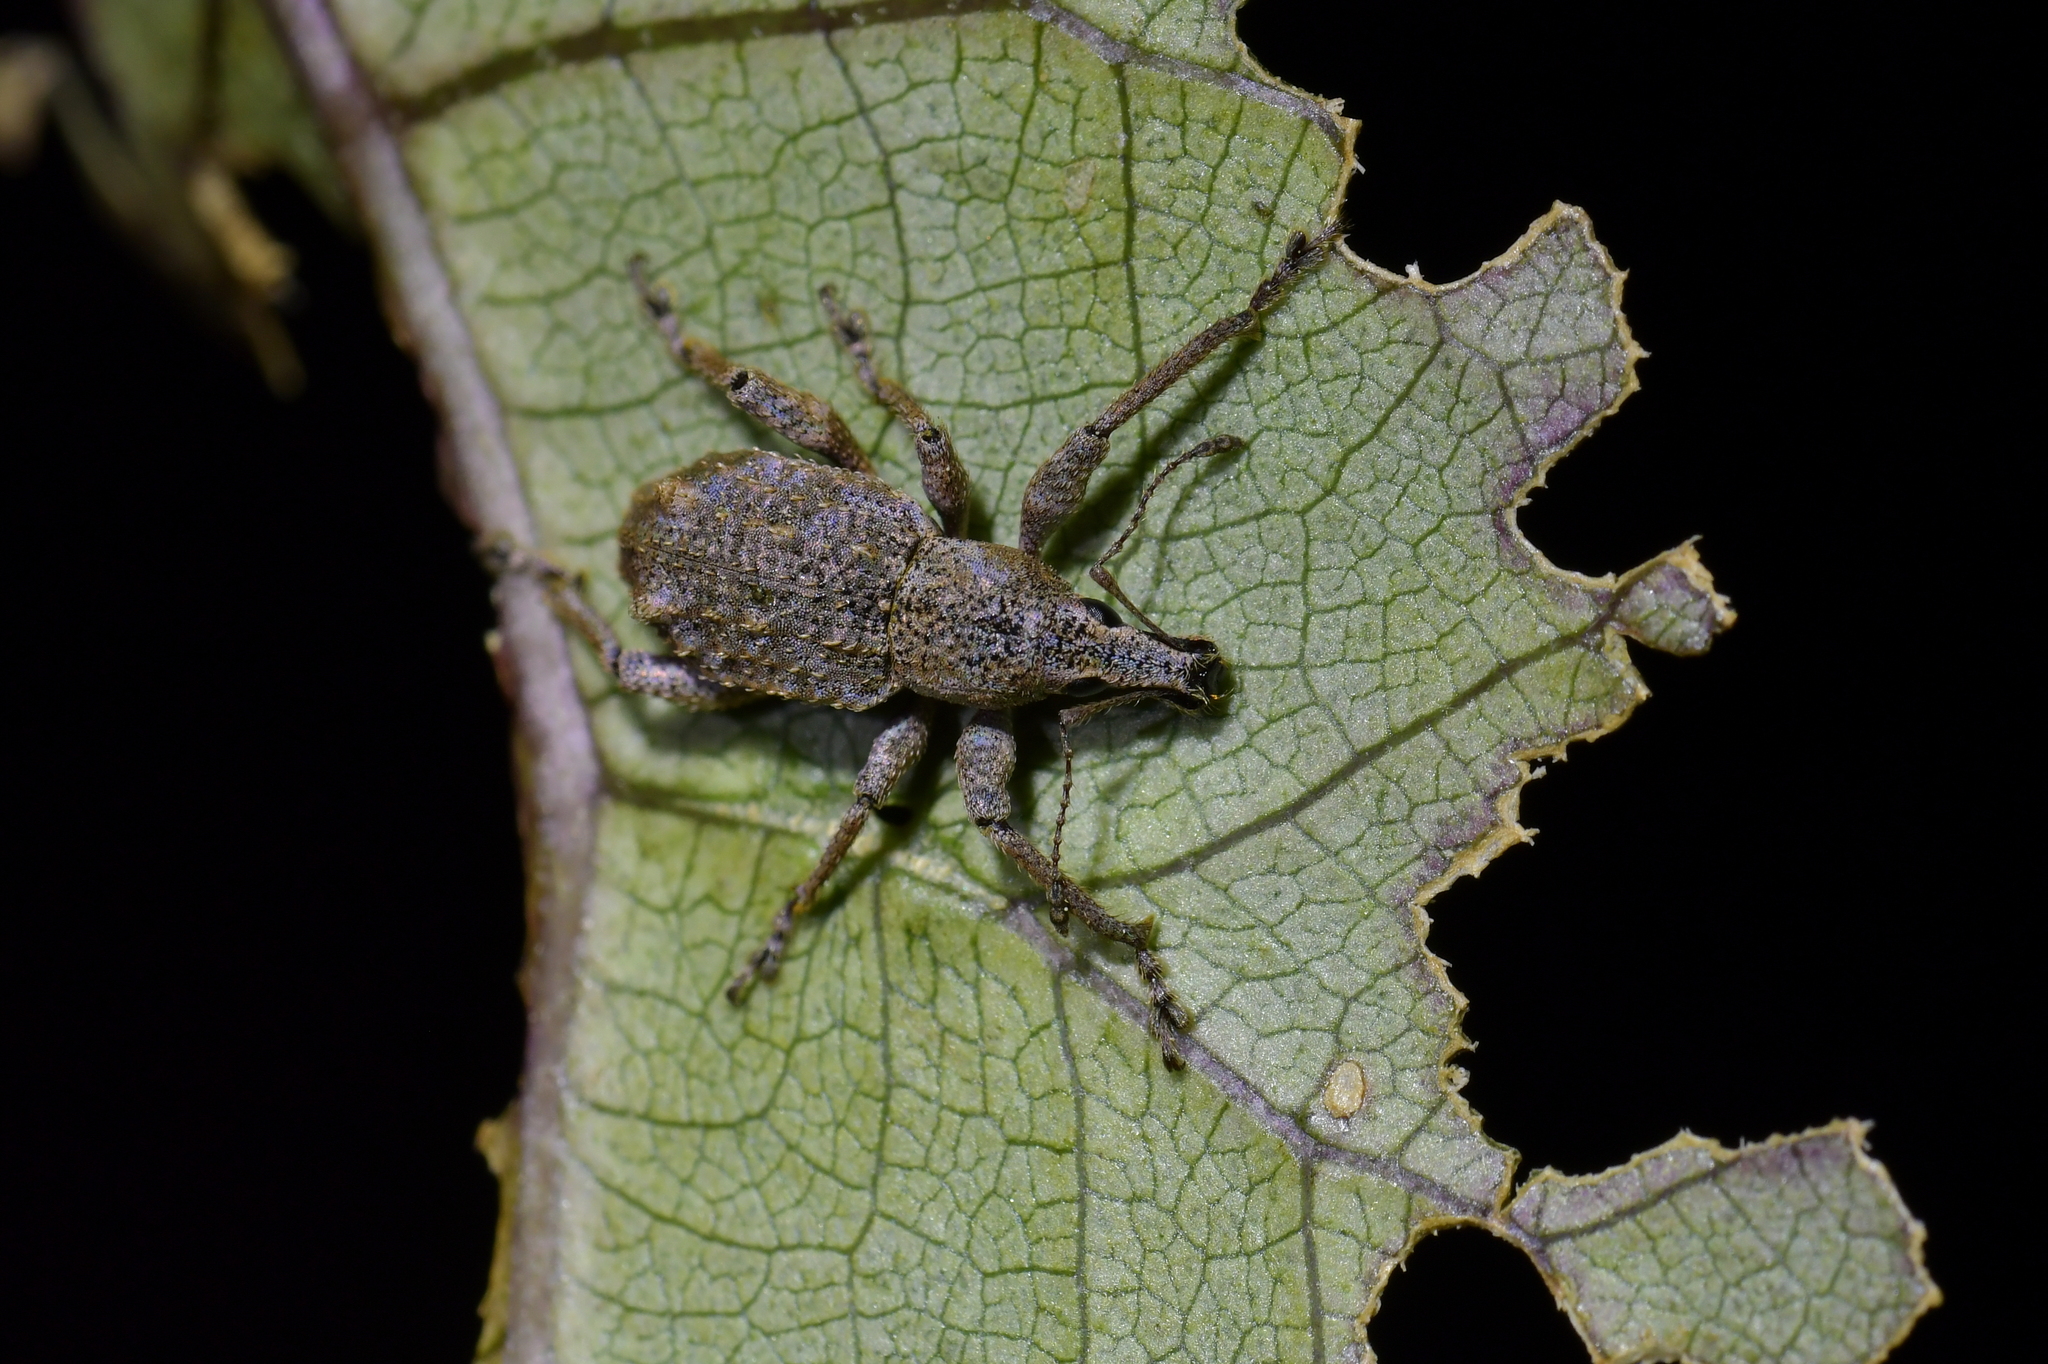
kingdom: Animalia
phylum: Arthropoda
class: Insecta
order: Coleoptera
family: Curculionidae
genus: Catoptes
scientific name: Catoptes binodis
